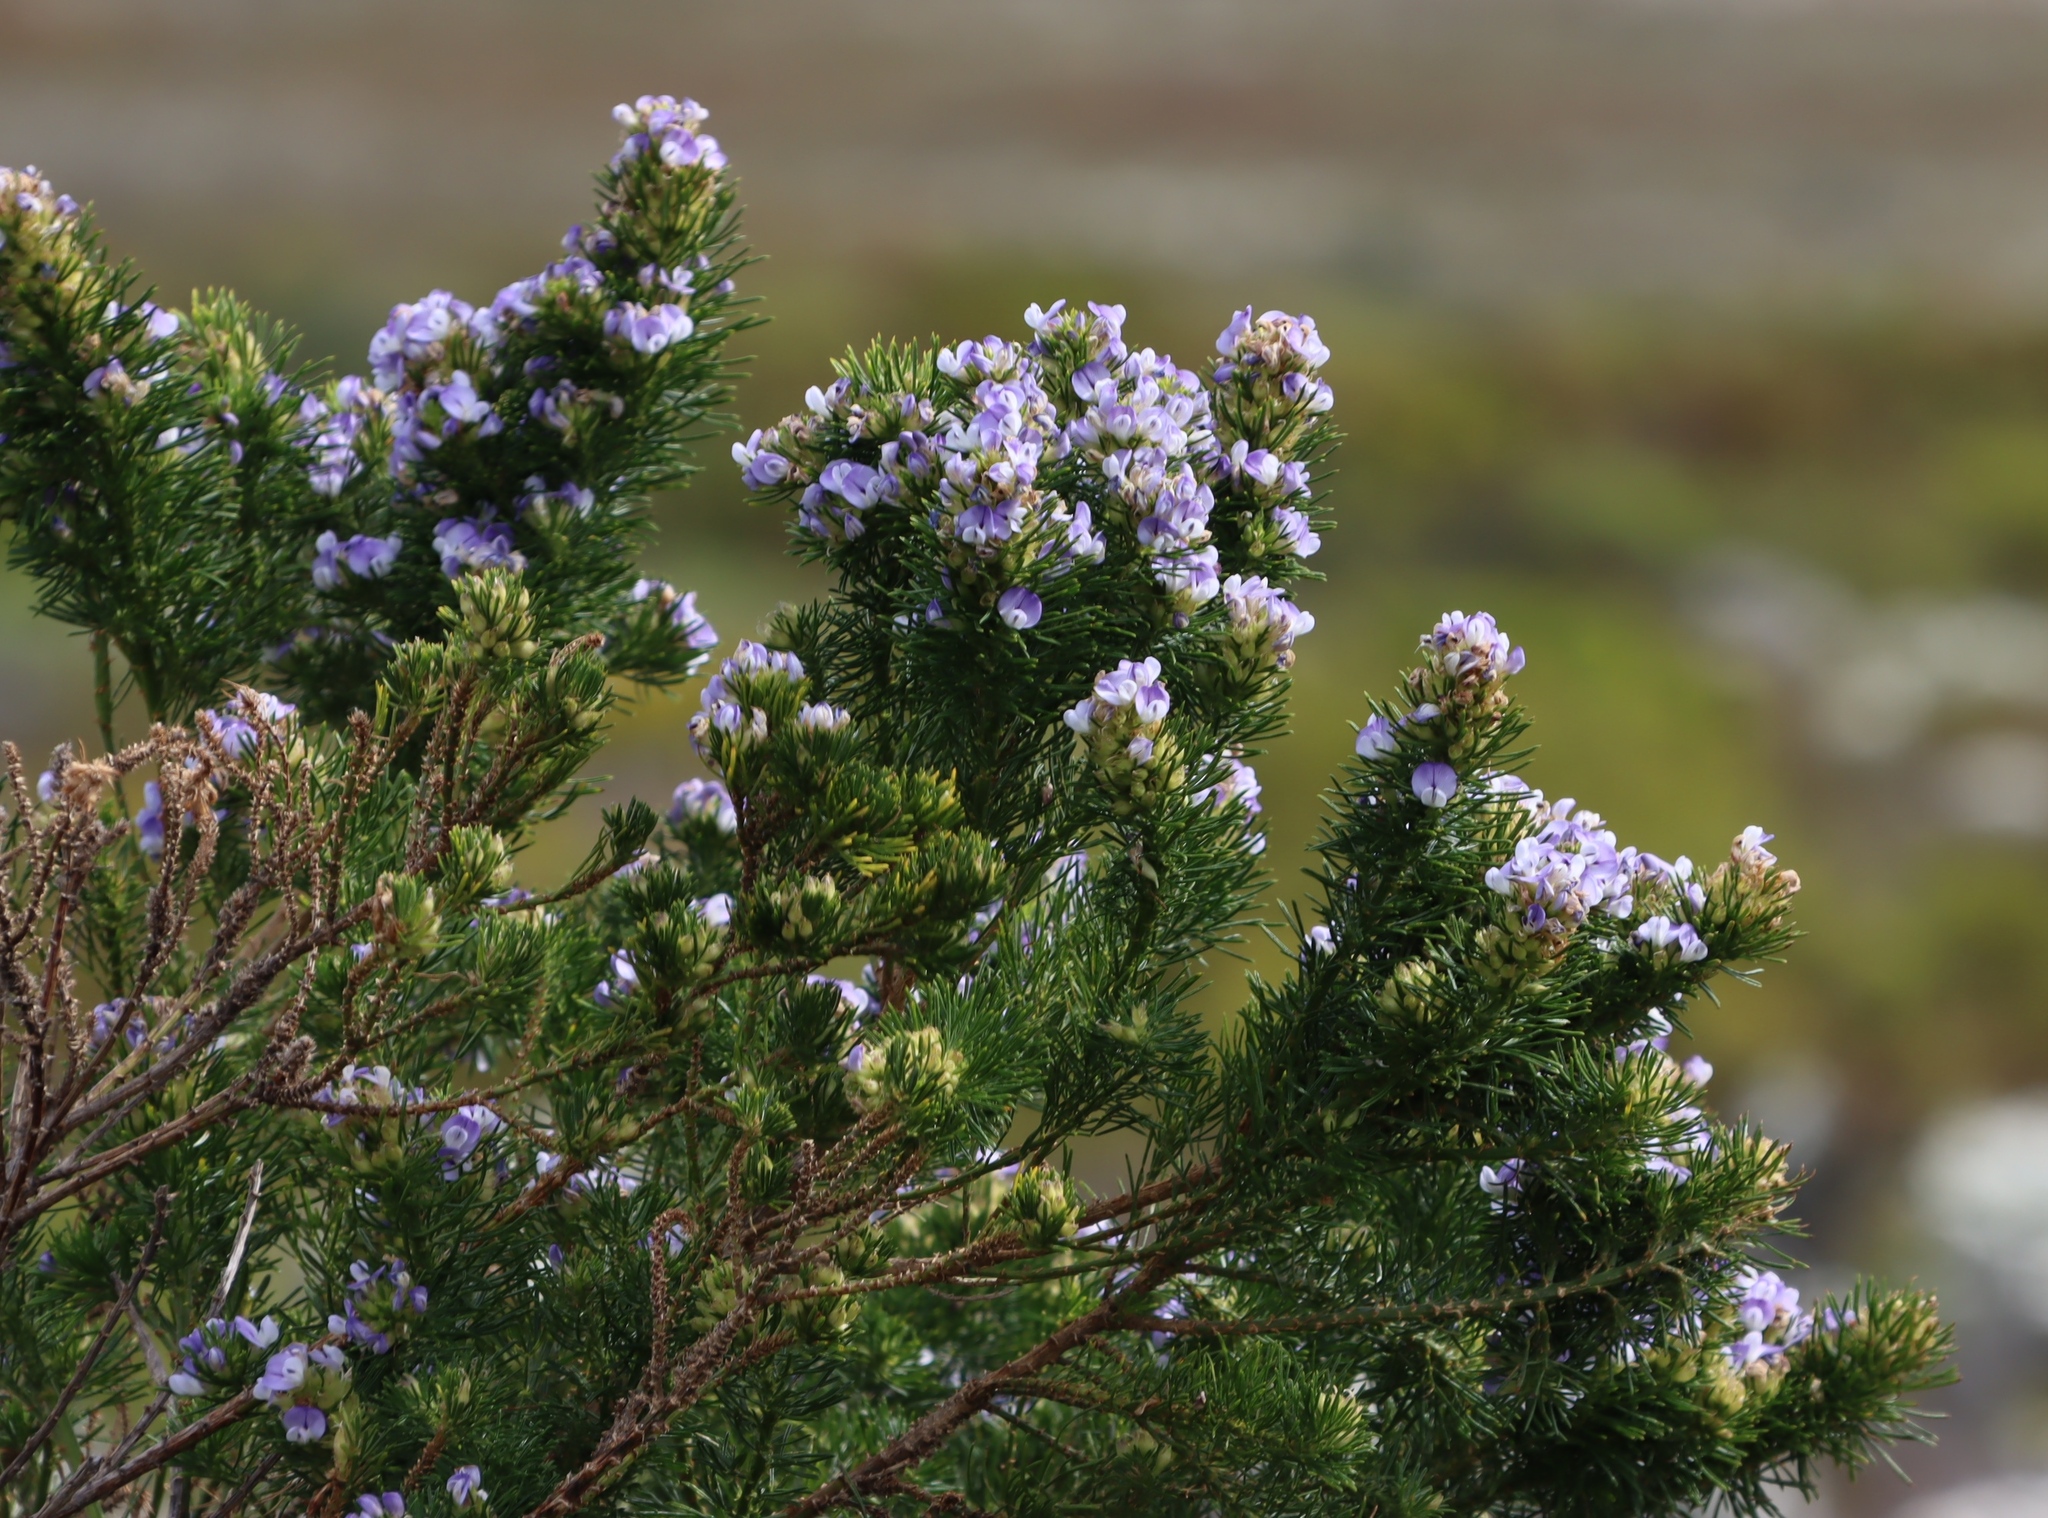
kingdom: Plantae
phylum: Tracheophyta
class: Magnoliopsida
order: Fabales
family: Fabaceae
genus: Psoralea
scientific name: Psoralea pinnata
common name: African scurfpea
